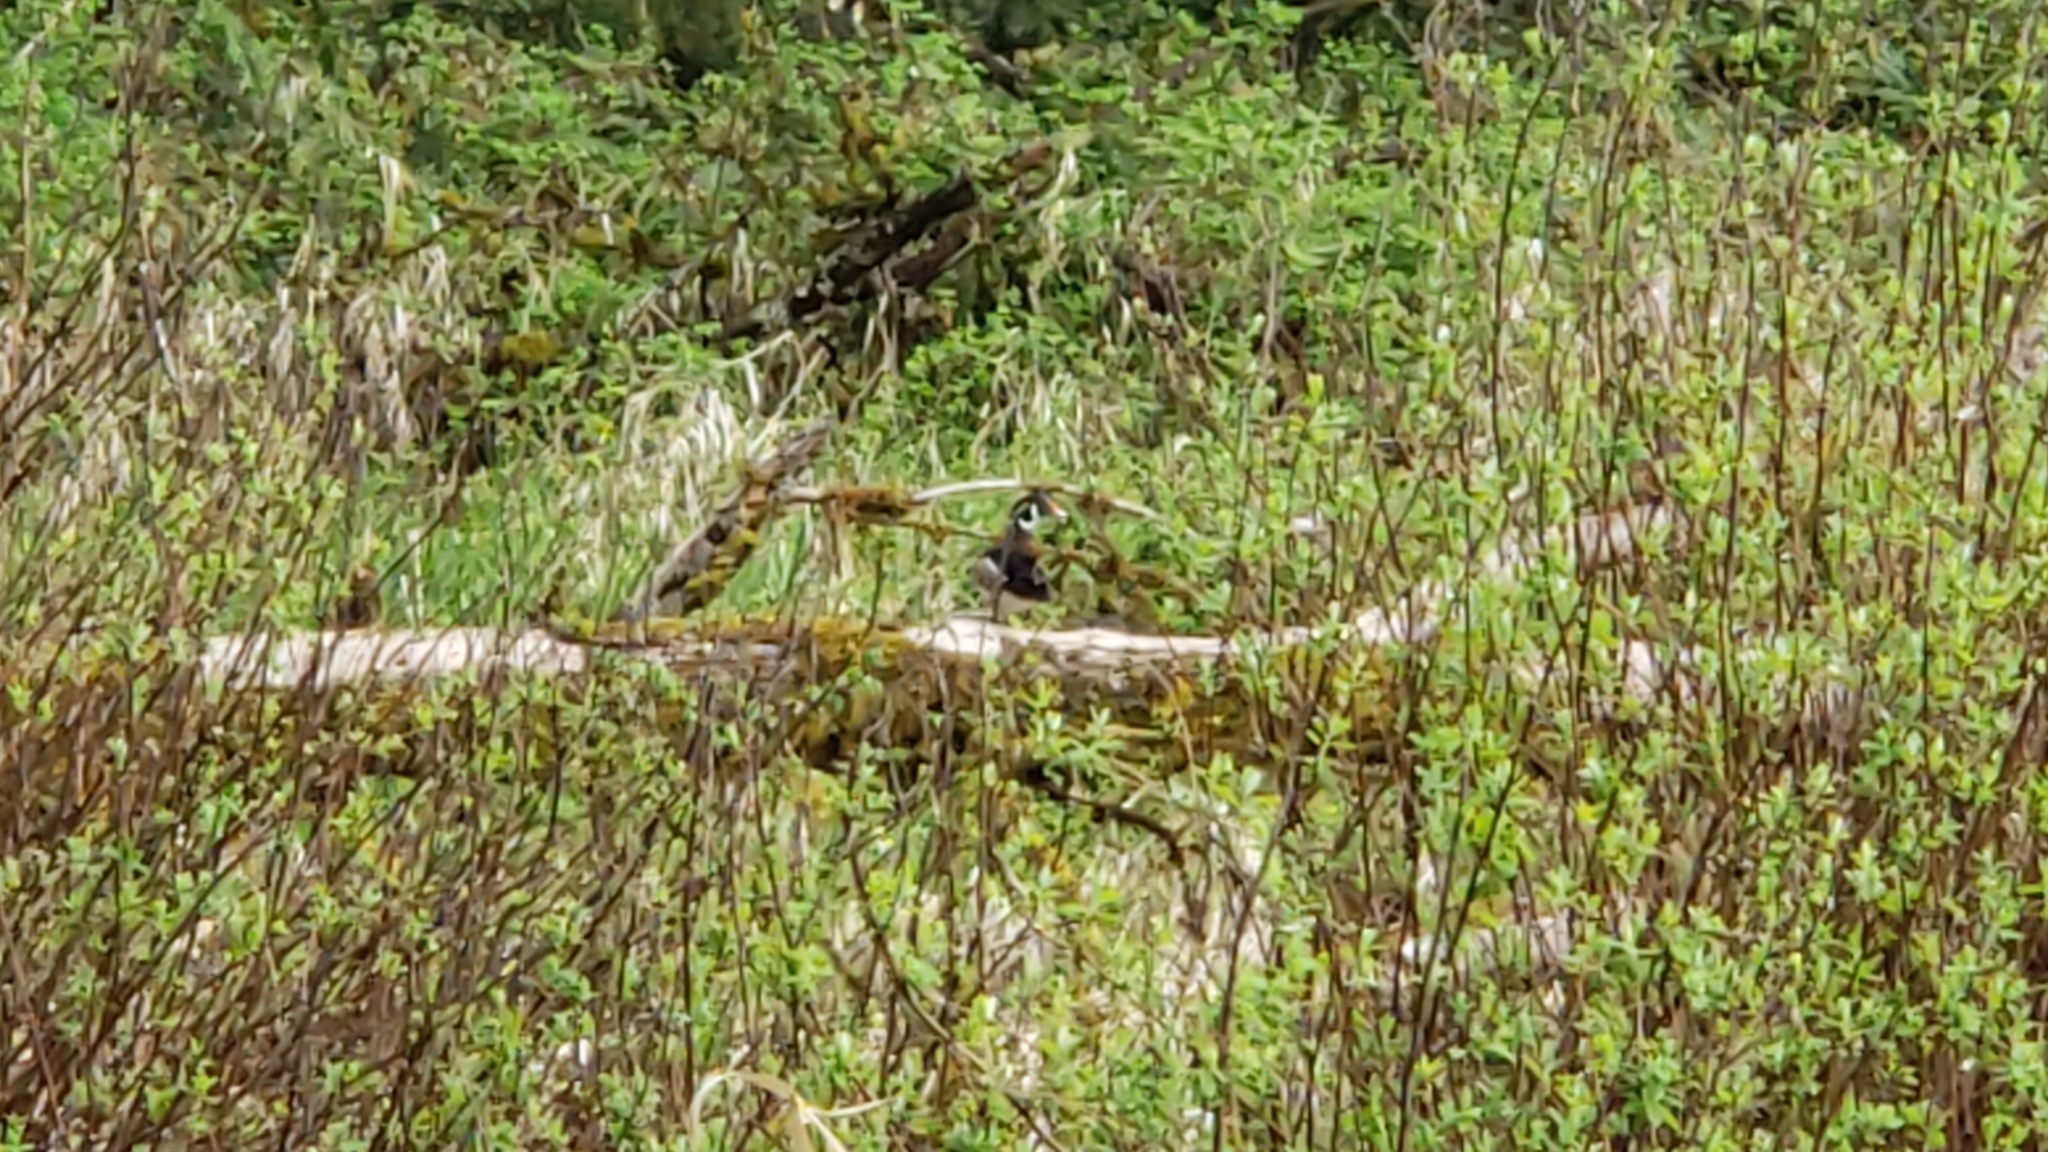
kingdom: Animalia
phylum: Chordata
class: Aves
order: Anseriformes
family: Anatidae
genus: Aix
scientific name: Aix sponsa
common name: Wood duck
